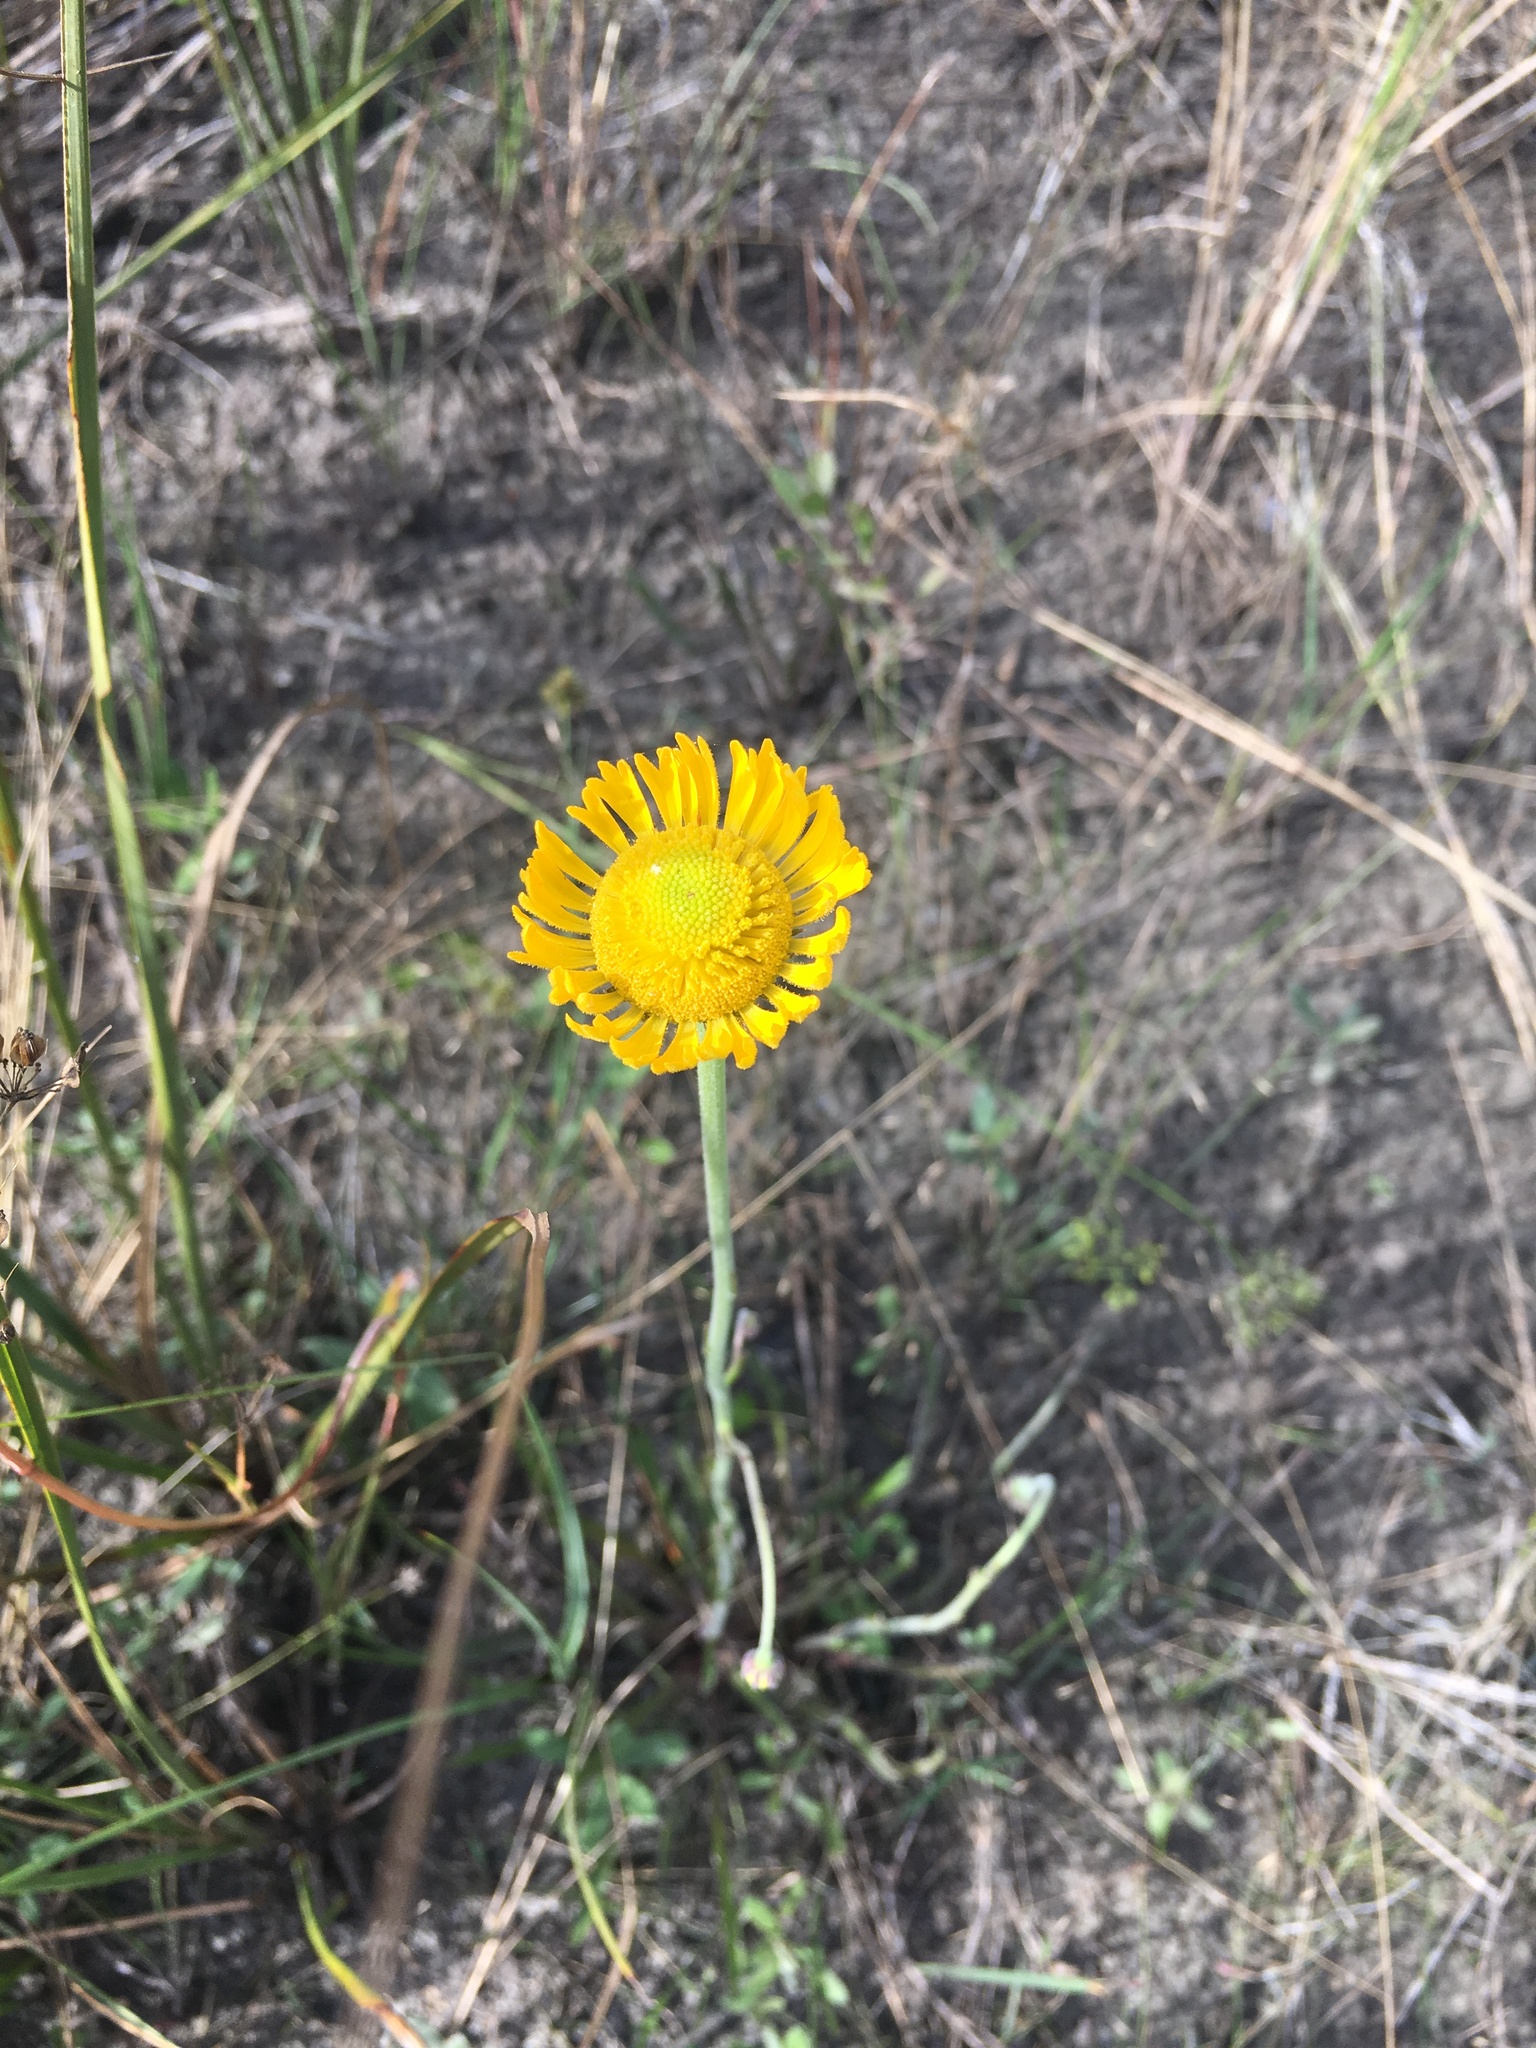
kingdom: Plantae
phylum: Tracheophyta
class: Magnoliopsida
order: Asterales
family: Asteraceae
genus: Helenium
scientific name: Helenium pinnatifidum
